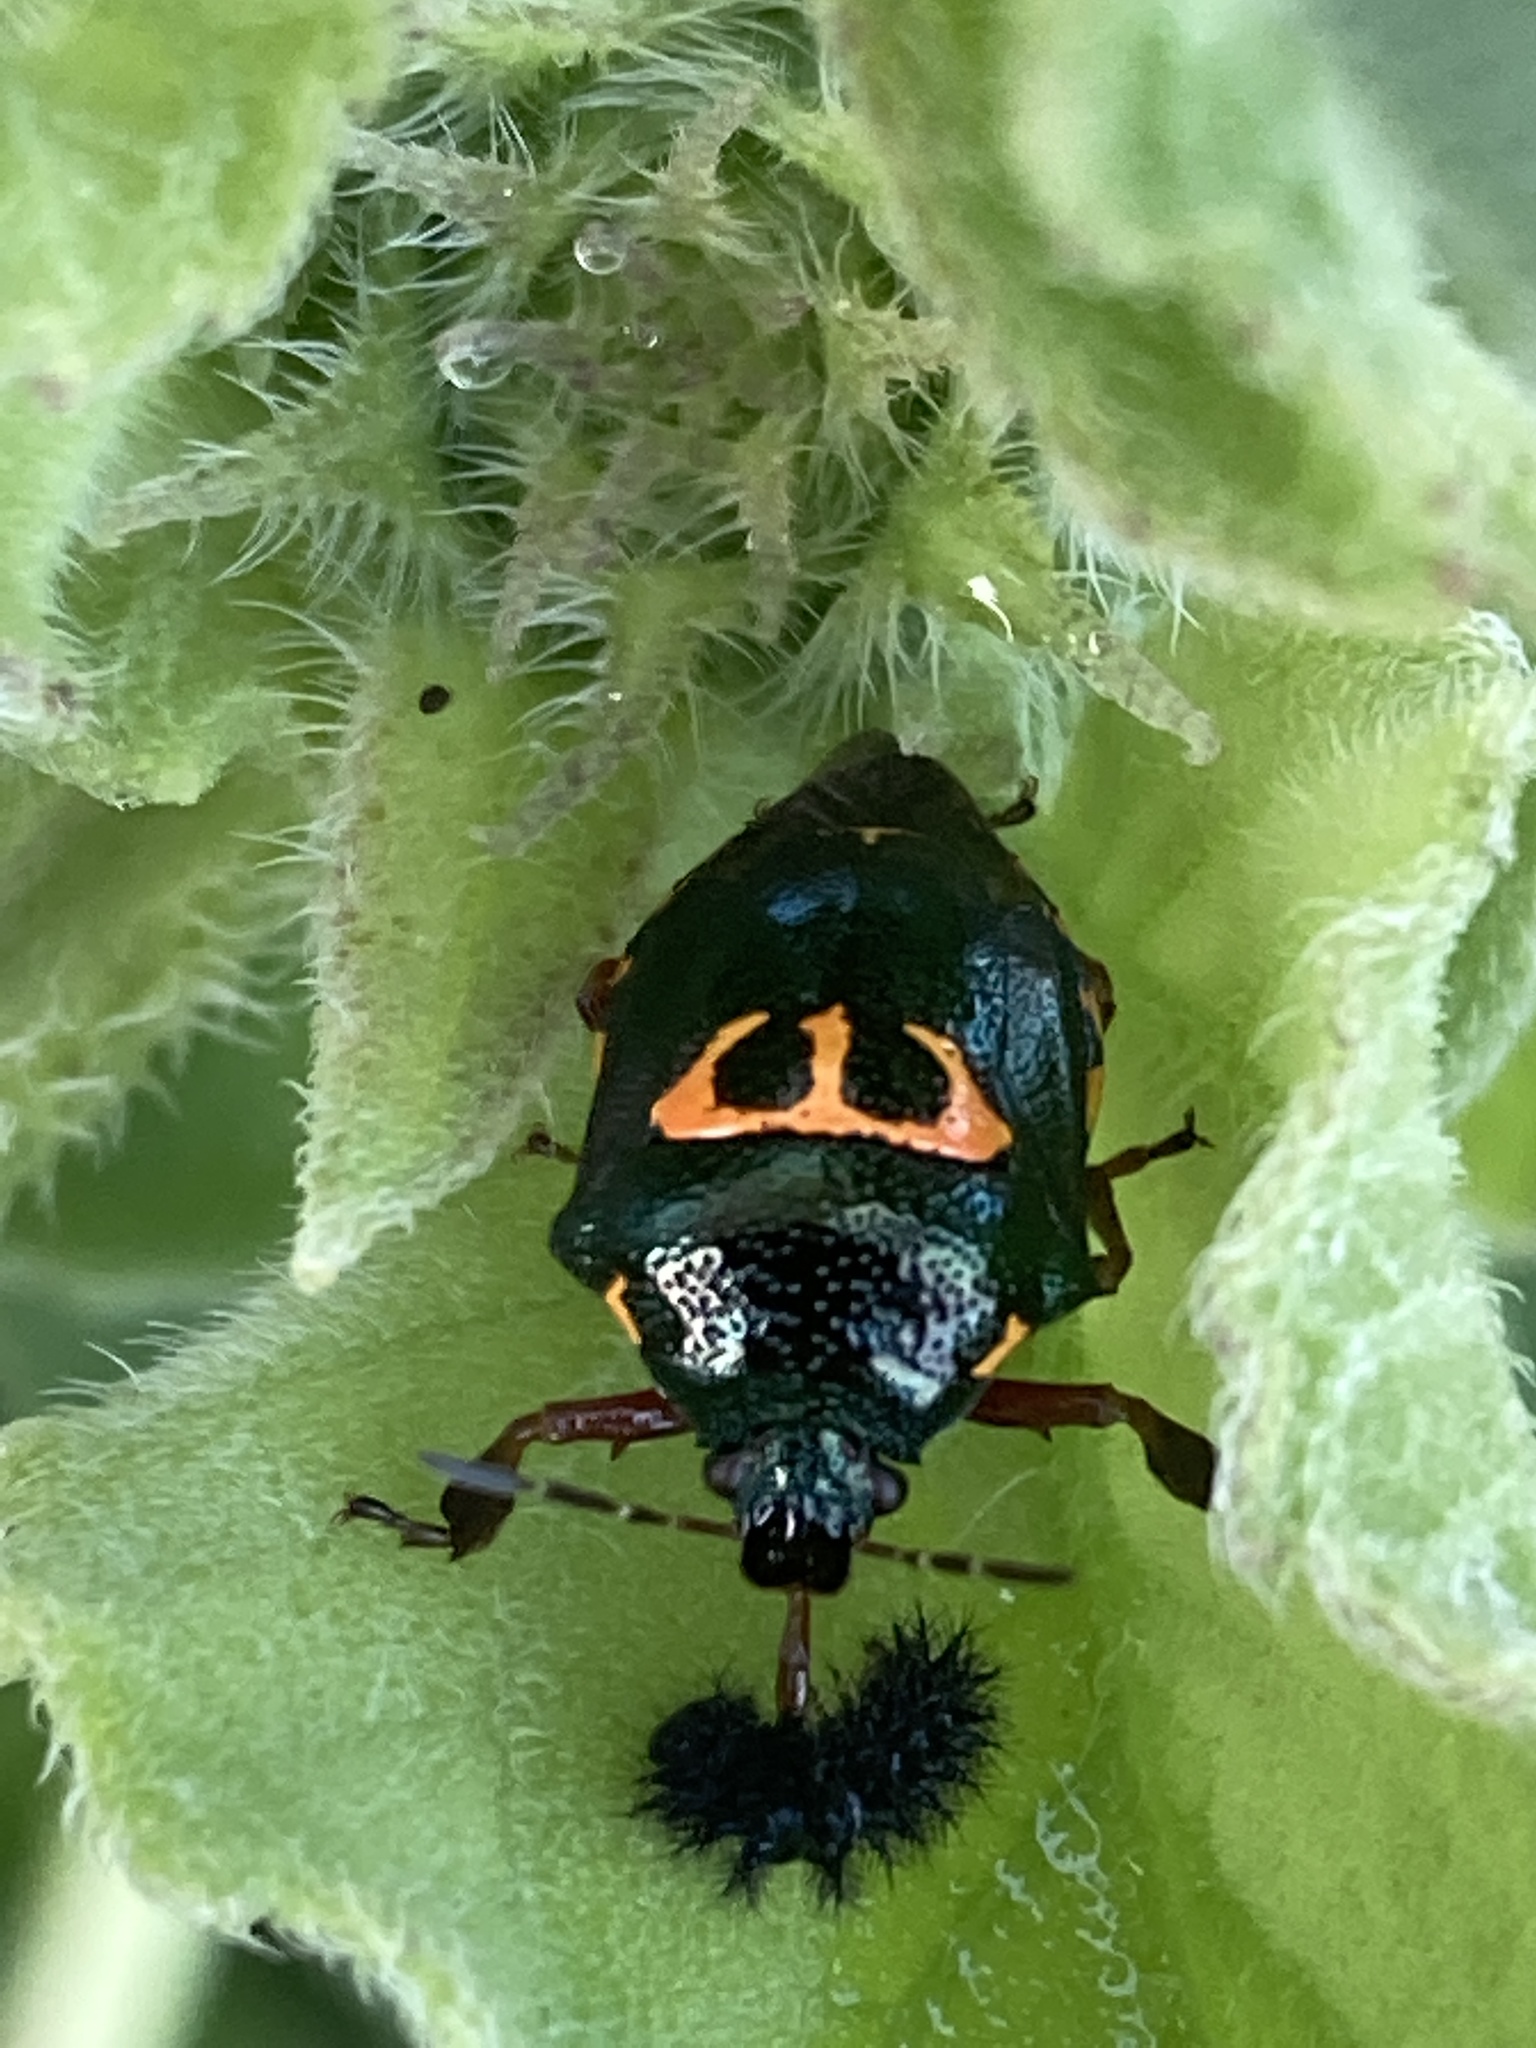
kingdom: Animalia
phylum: Arthropoda
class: Insecta
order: Hemiptera
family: Pentatomidae
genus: Stiretrus
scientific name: Stiretrus anchorago
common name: Anchor stink bug
